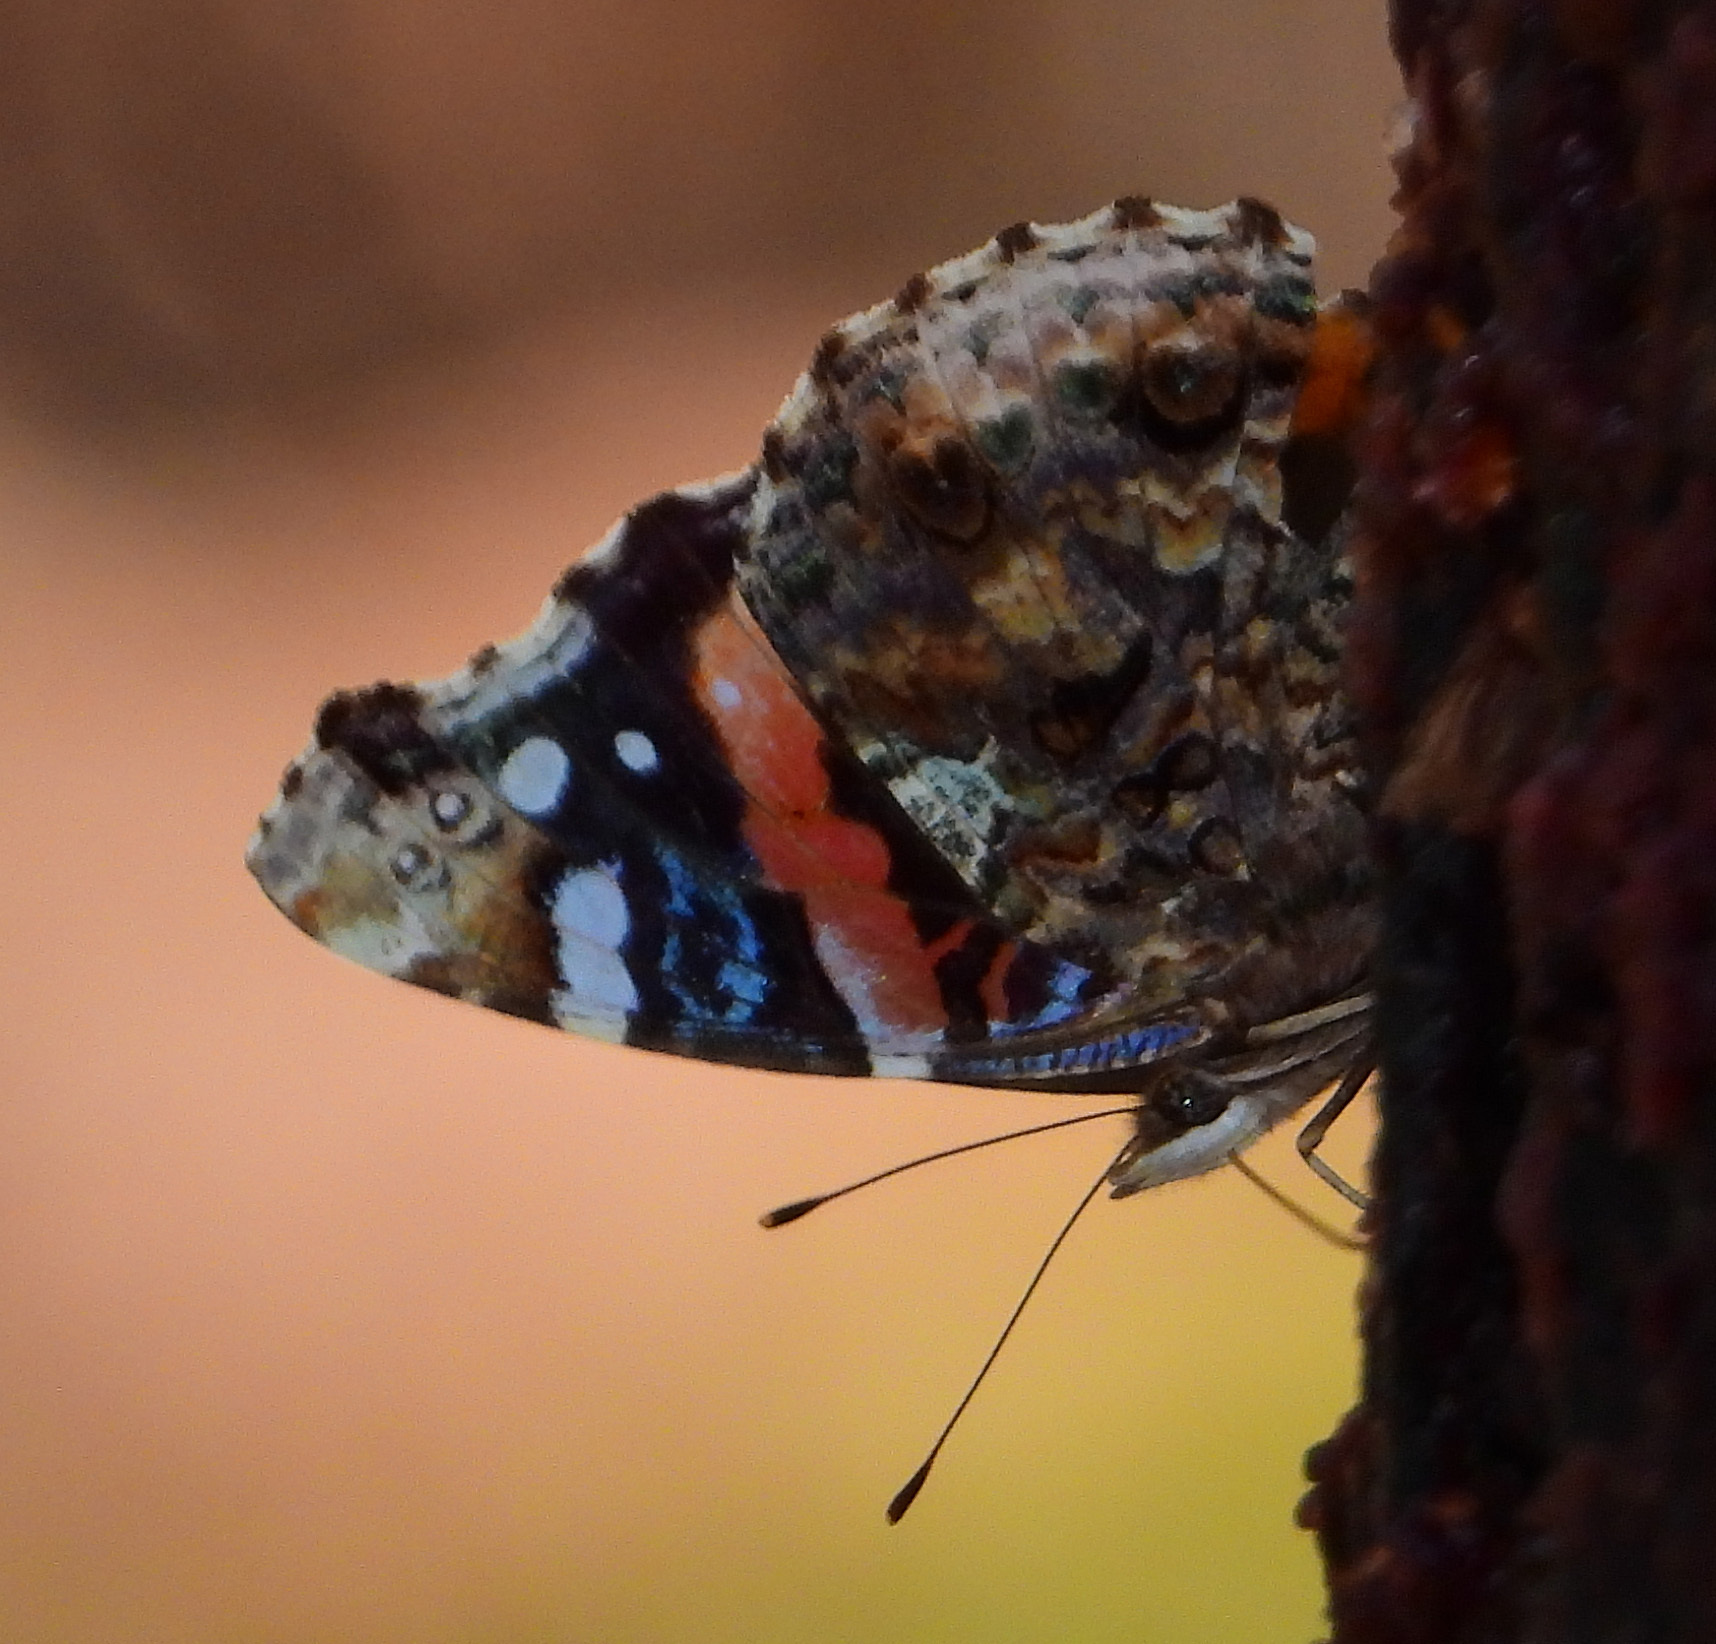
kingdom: Animalia
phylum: Arthropoda
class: Insecta
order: Lepidoptera
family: Nymphalidae
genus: Vanessa
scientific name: Vanessa atalanta
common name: Red admiral
